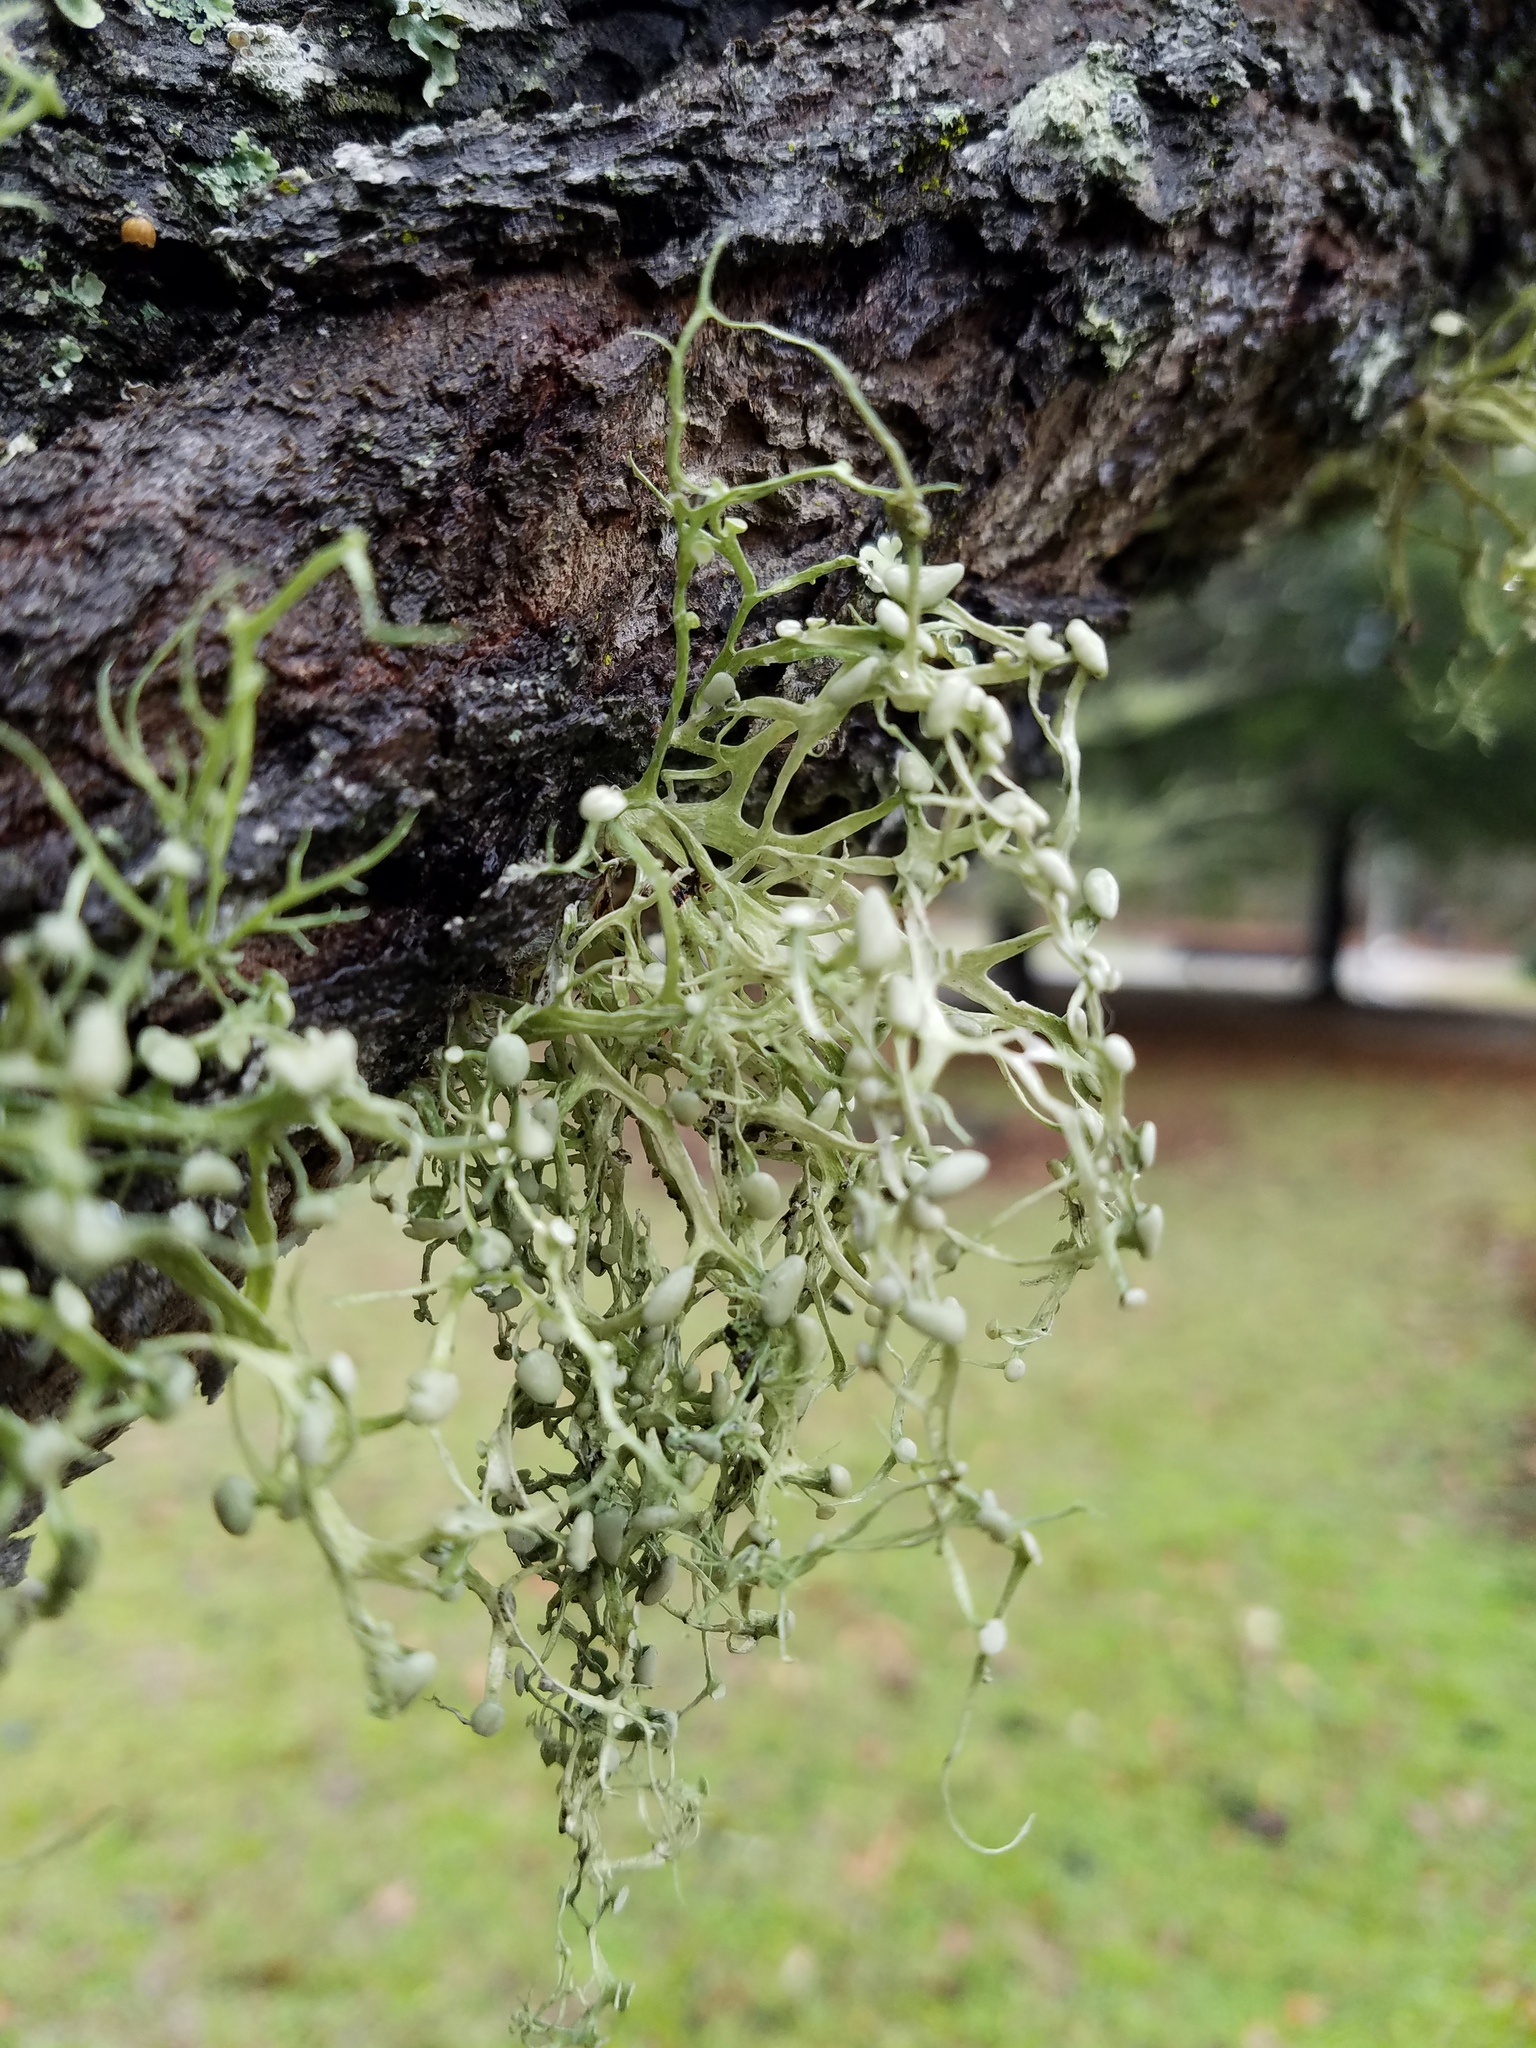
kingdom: Fungi
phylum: Ascomycota
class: Lecanoromycetes
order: Lecanorales
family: Ramalinaceae
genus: Ramalina
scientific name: Ramalina stenospora
